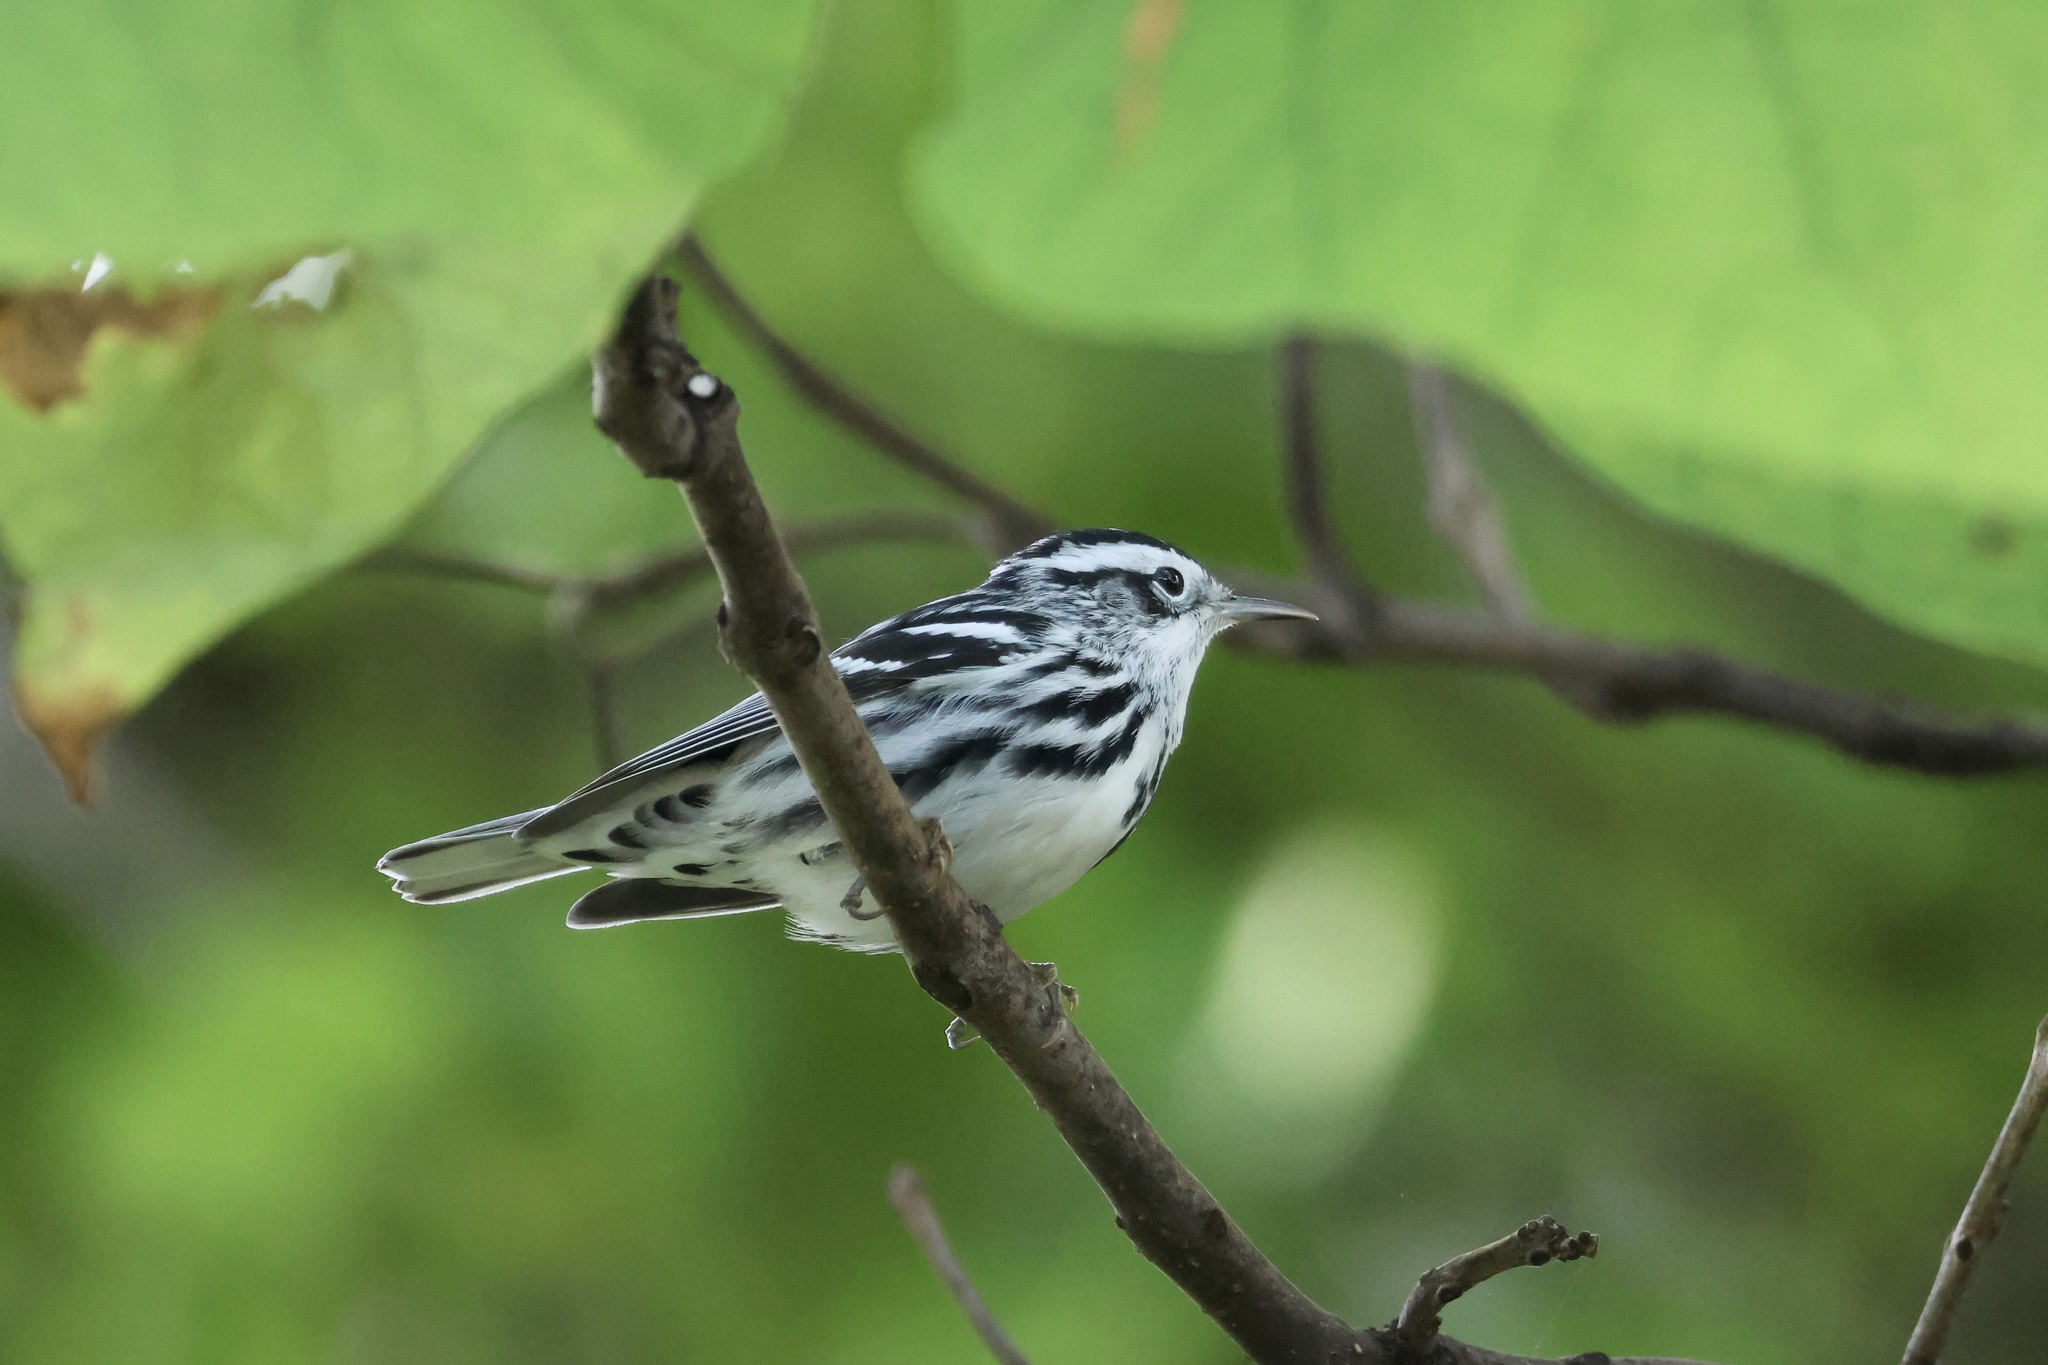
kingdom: Animalia
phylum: Chordata
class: Aves
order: Passeriformes
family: Parulidae
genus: Mniotilta
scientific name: Mniotilta varia
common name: Black-and-white warbler
